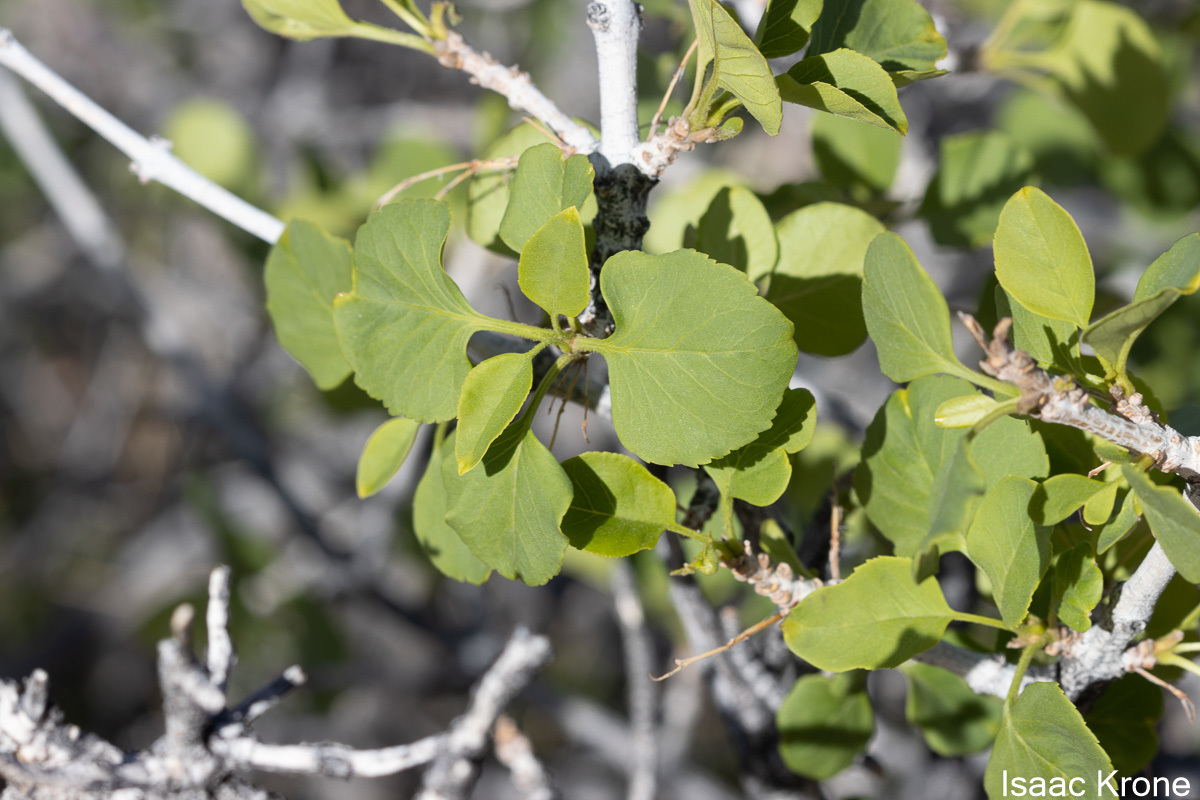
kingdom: Plantae
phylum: Tracheophyta
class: Magnoliopsida
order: Lamiales
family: Oleaceae
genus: Fraxinus
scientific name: Fraxinus anomala
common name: Utah ash
